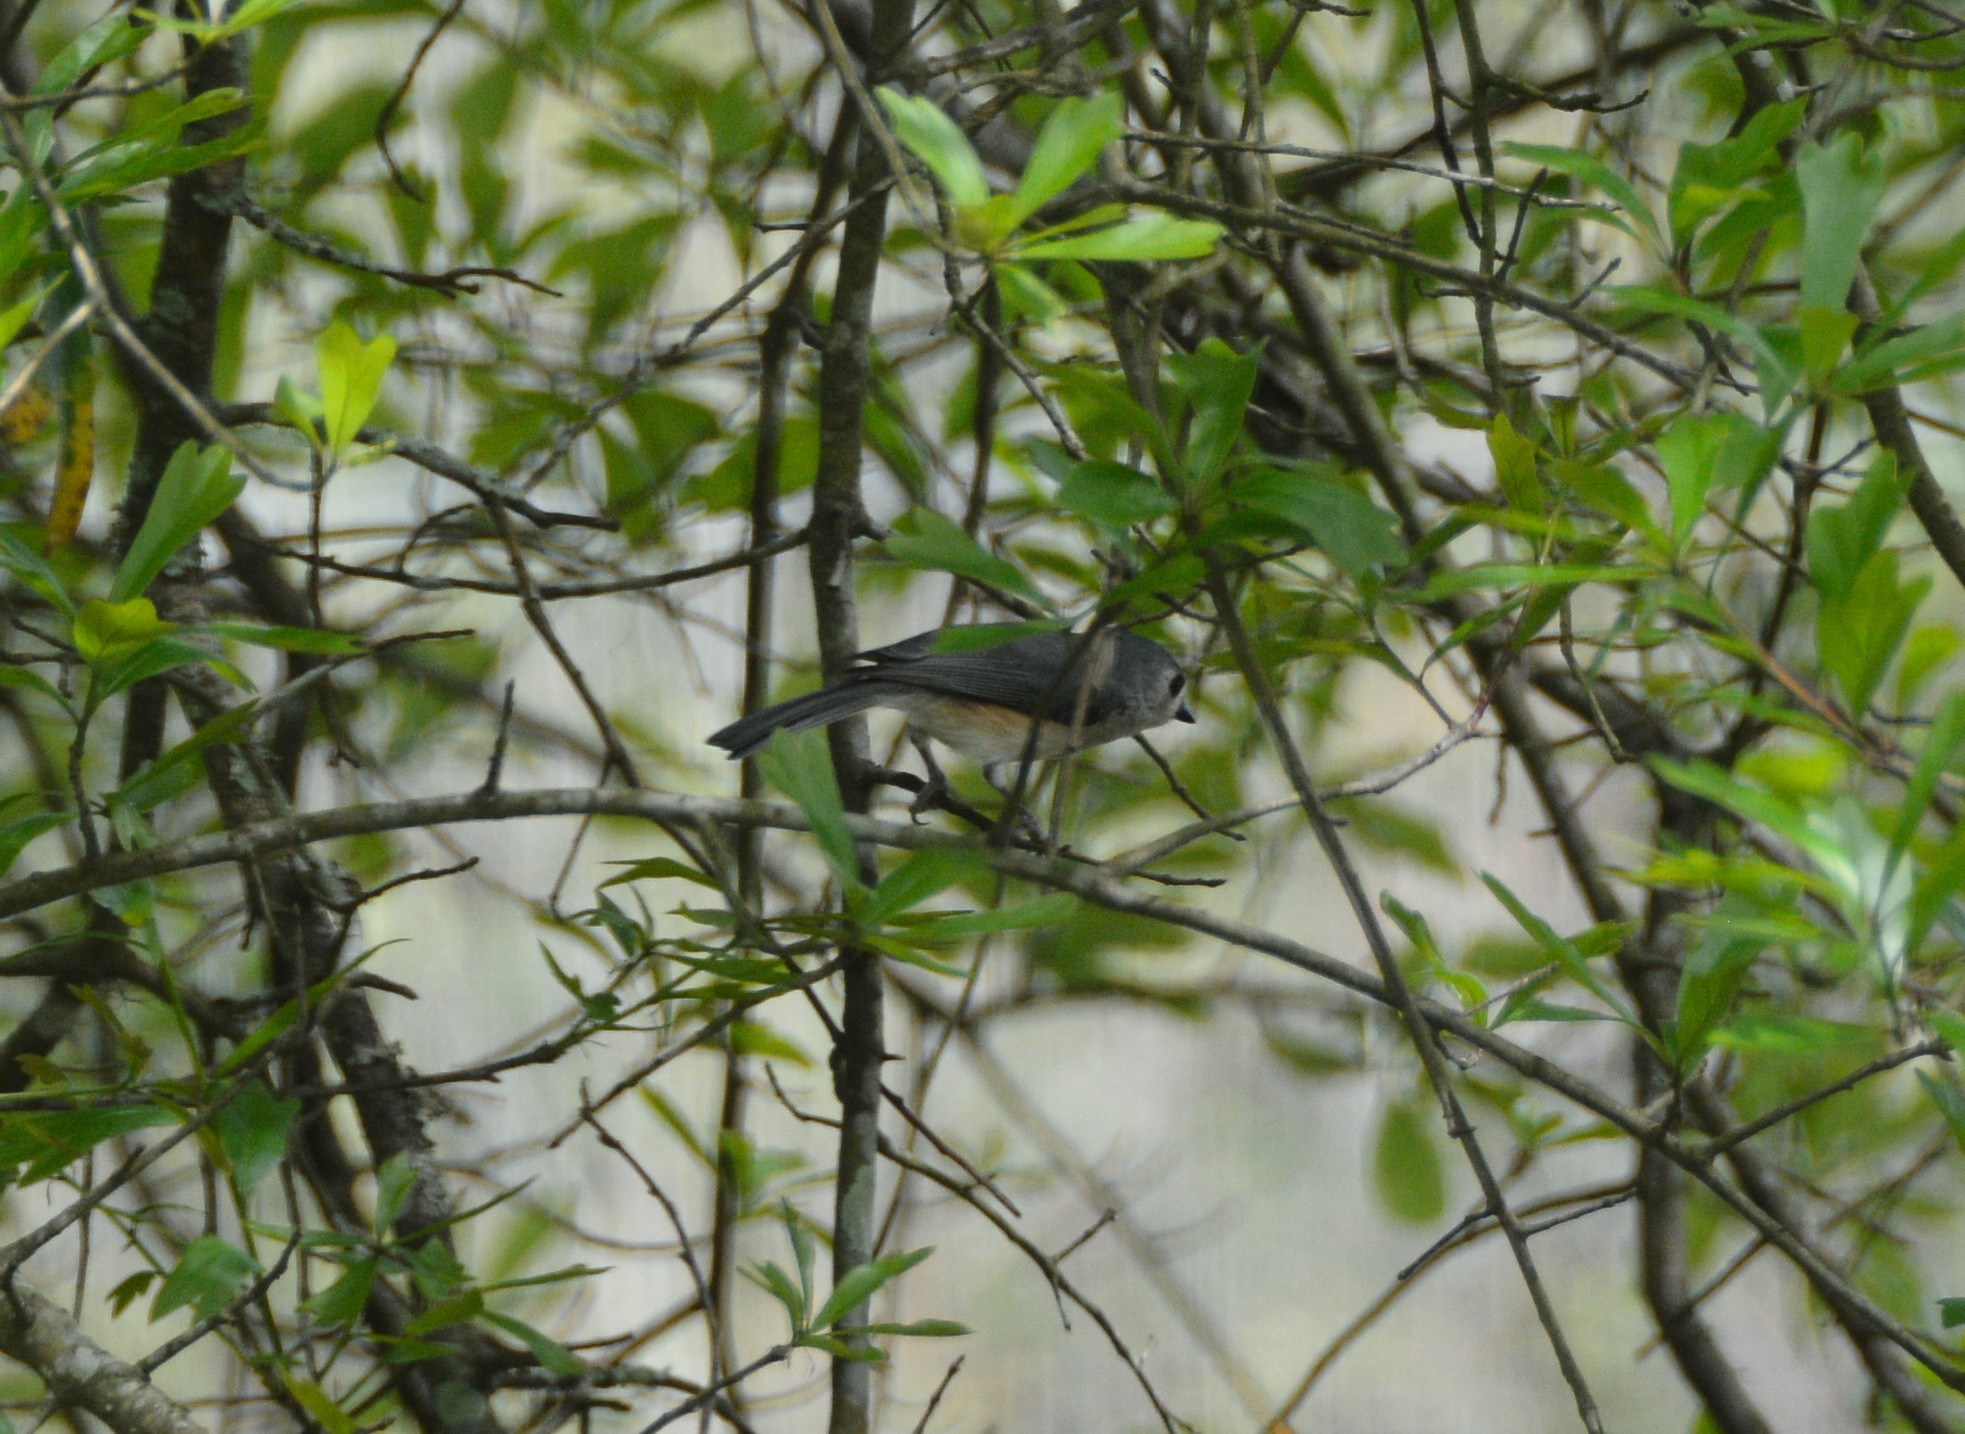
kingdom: Animalia
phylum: Chordata
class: Aves
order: Passeriformes
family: Paridae
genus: Baeolophus
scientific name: Baeolophus bicolor
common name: Tufted titmouse
